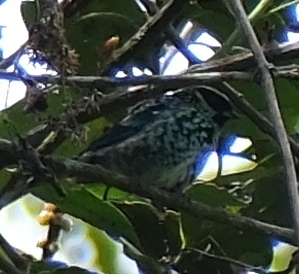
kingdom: Animalia
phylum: Chordata
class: Aves
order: Passeriformes
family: Thraupidae
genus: Tangara
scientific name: Tangara nigroviridis
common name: Beryl-spangled tanager
